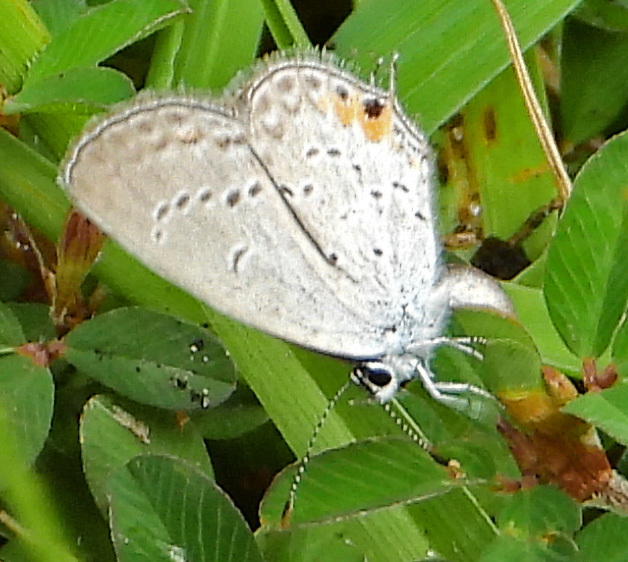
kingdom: Animalia
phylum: Arthropoda
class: Insecta
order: Lepidoptera
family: Lycaenidae
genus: Elkalyce
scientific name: Elkalyce comyntas
